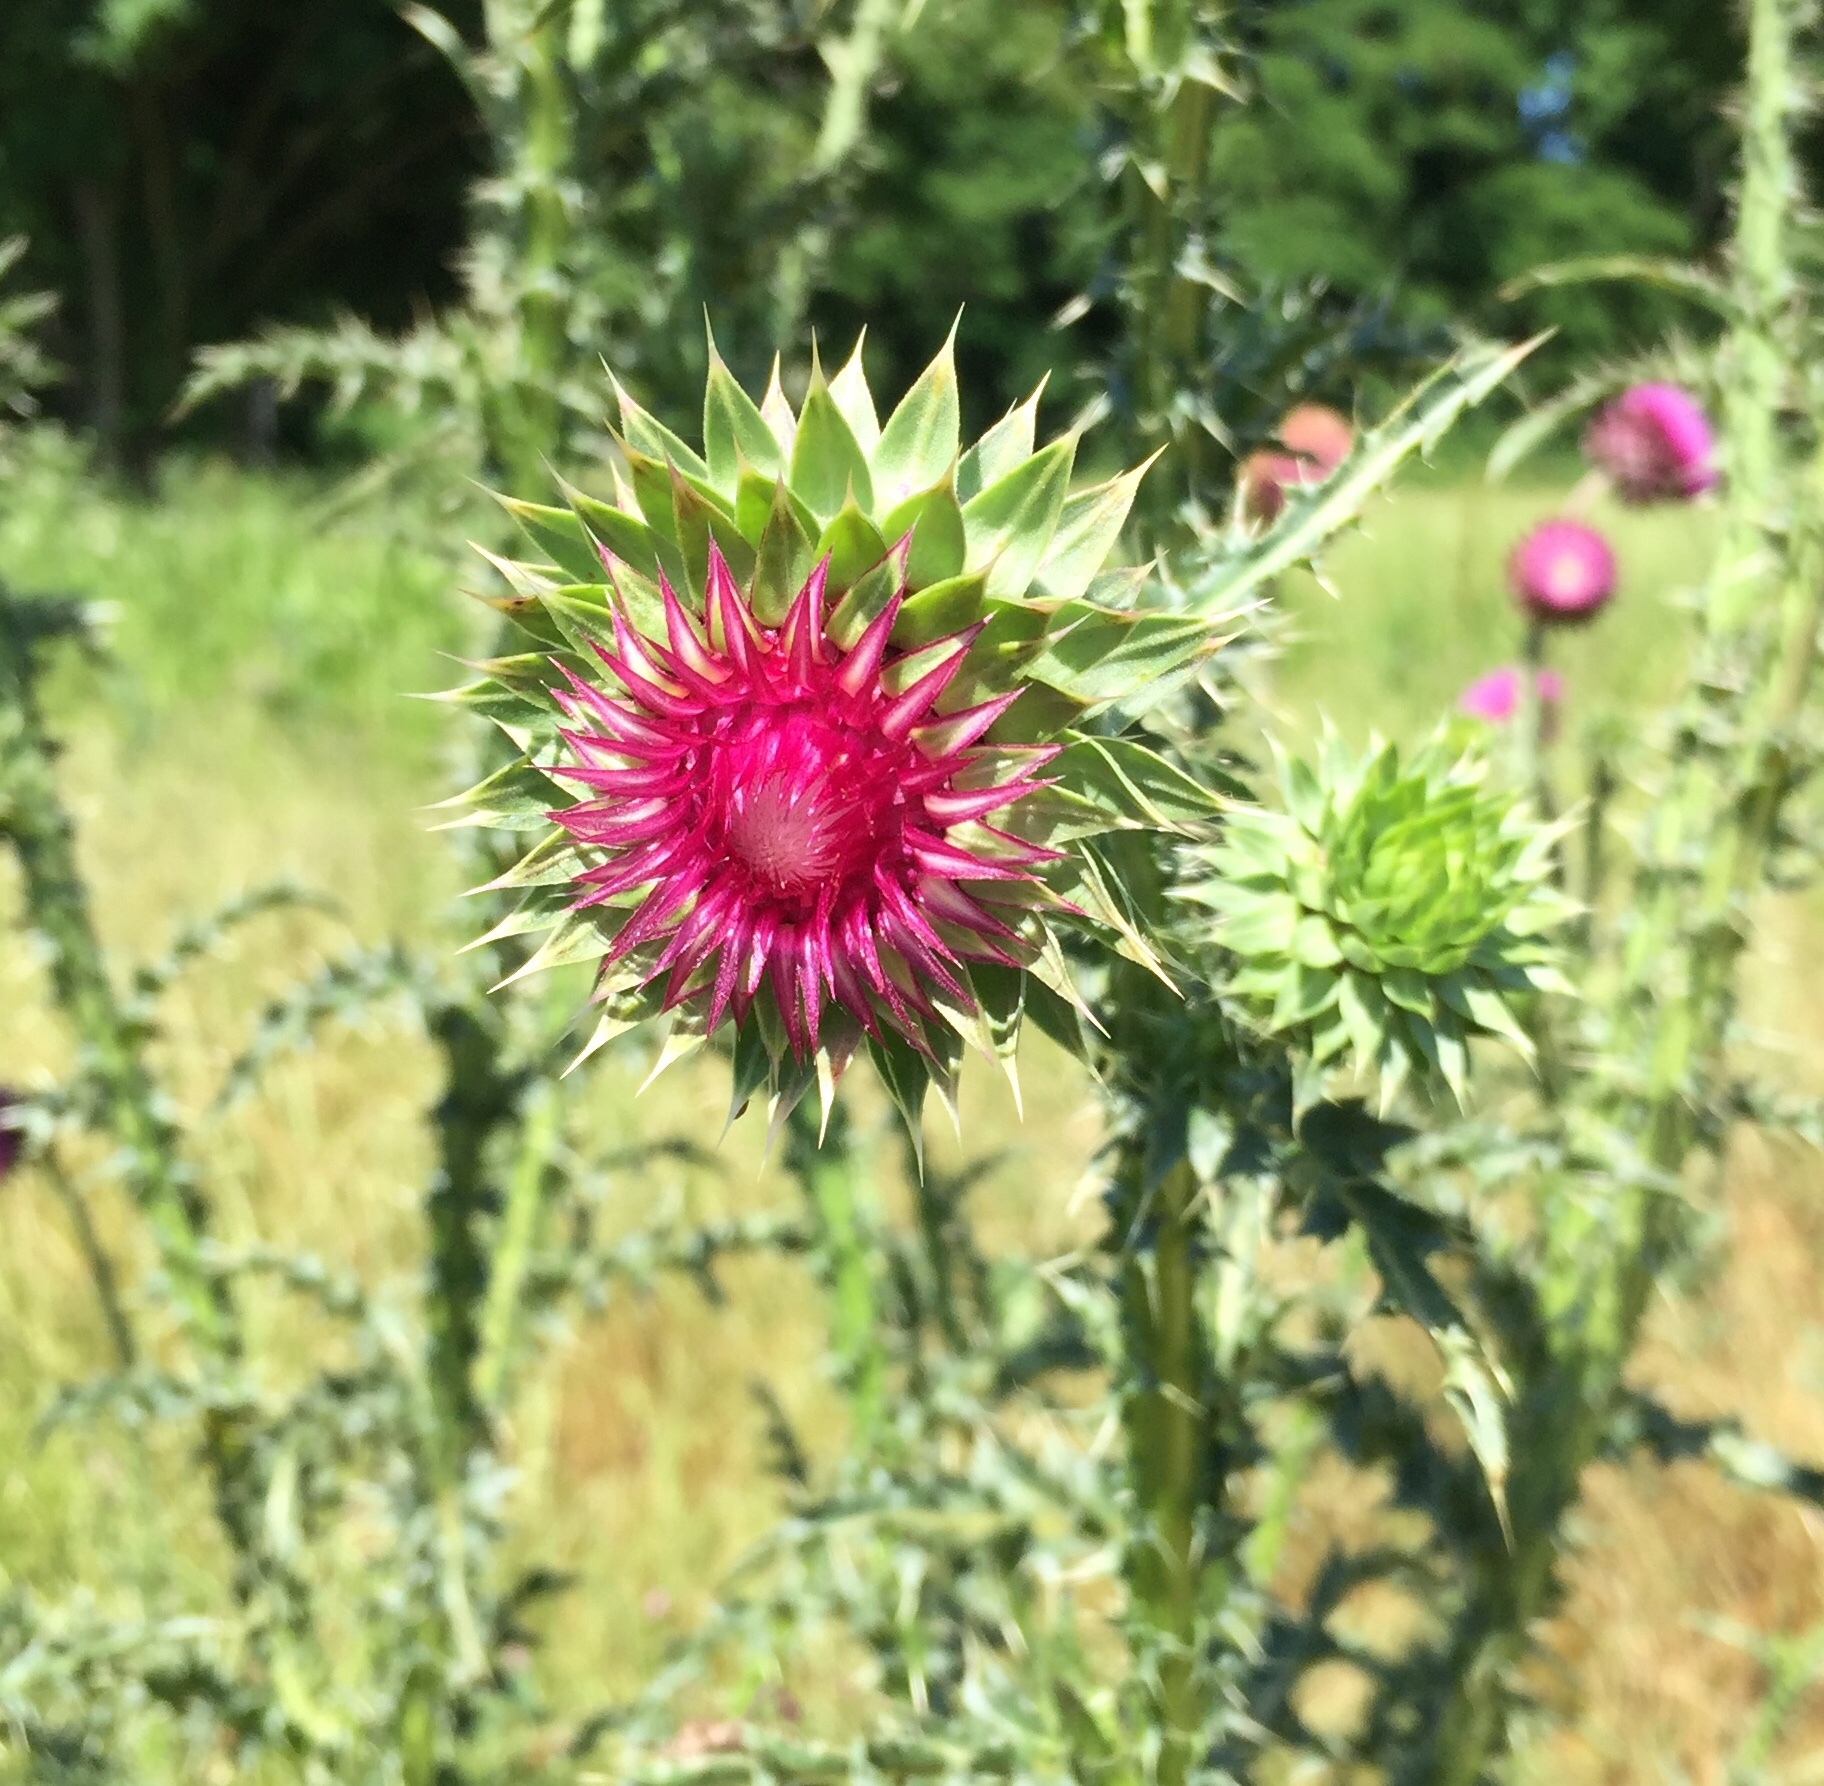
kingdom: Plantae
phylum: Tracheophyta
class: Magnoliopsida
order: Asterales
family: Asteraceae
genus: Carduus
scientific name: Carduus nutans
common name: Musk thistle
